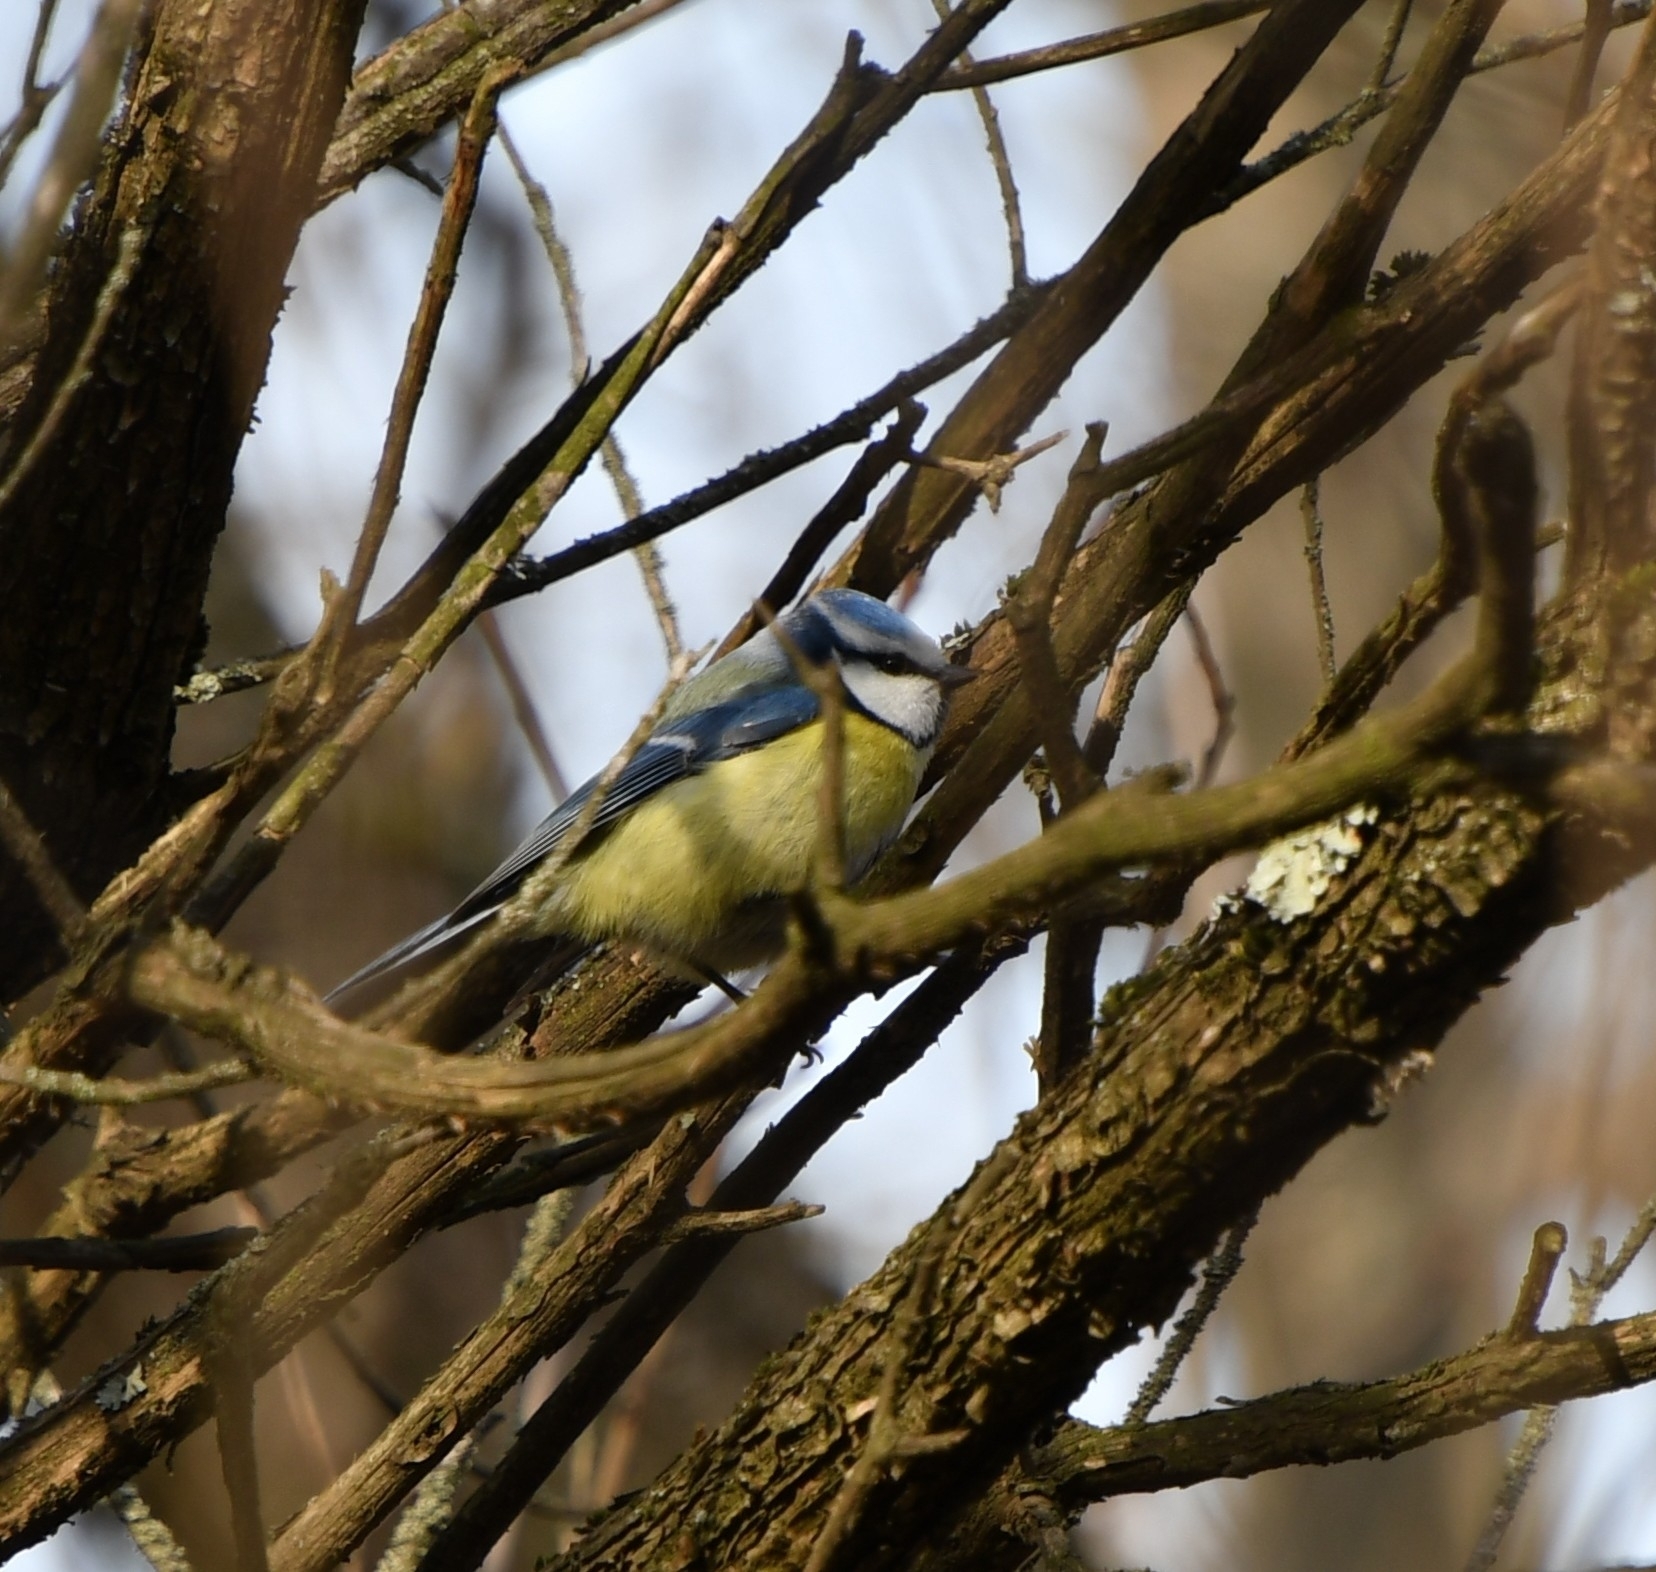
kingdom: Animalia
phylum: Chordata
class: Aves
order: Passeriformes
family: Paridae
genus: Cyanistes
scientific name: Cyanistes caeruleus
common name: Eurasian blue tit
